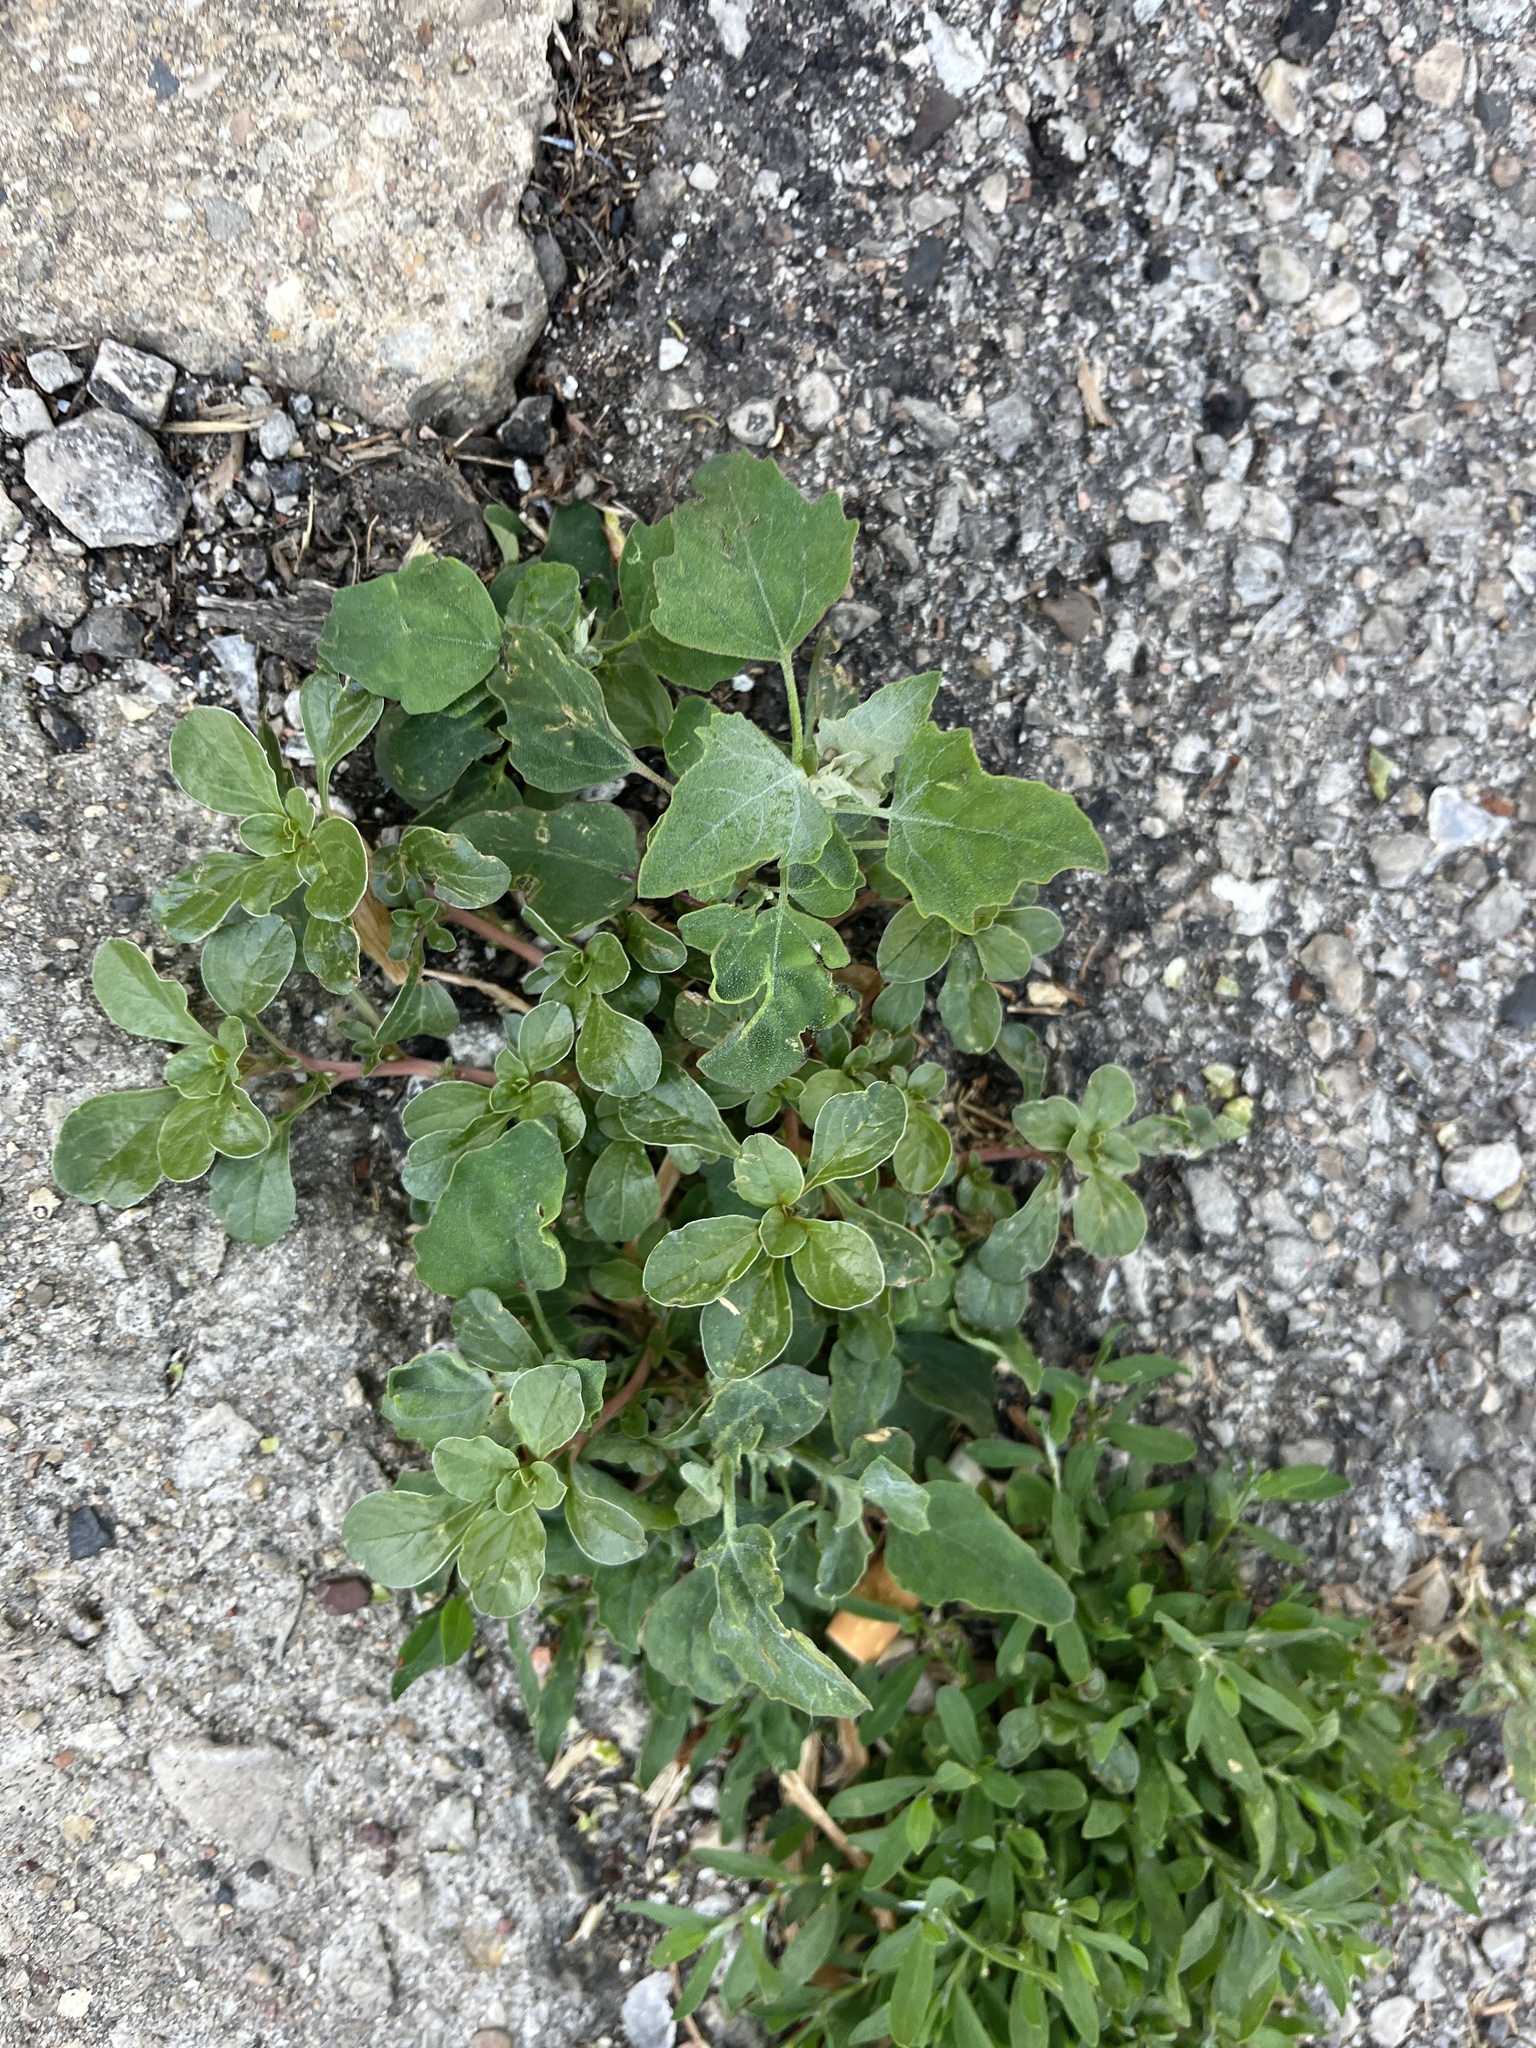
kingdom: Plantae
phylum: Tracheophyta
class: Magnoliopsida
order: Caryophyllales
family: Amaranthaceae
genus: Chenopodium
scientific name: Chenopodium album
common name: Fat-hen
